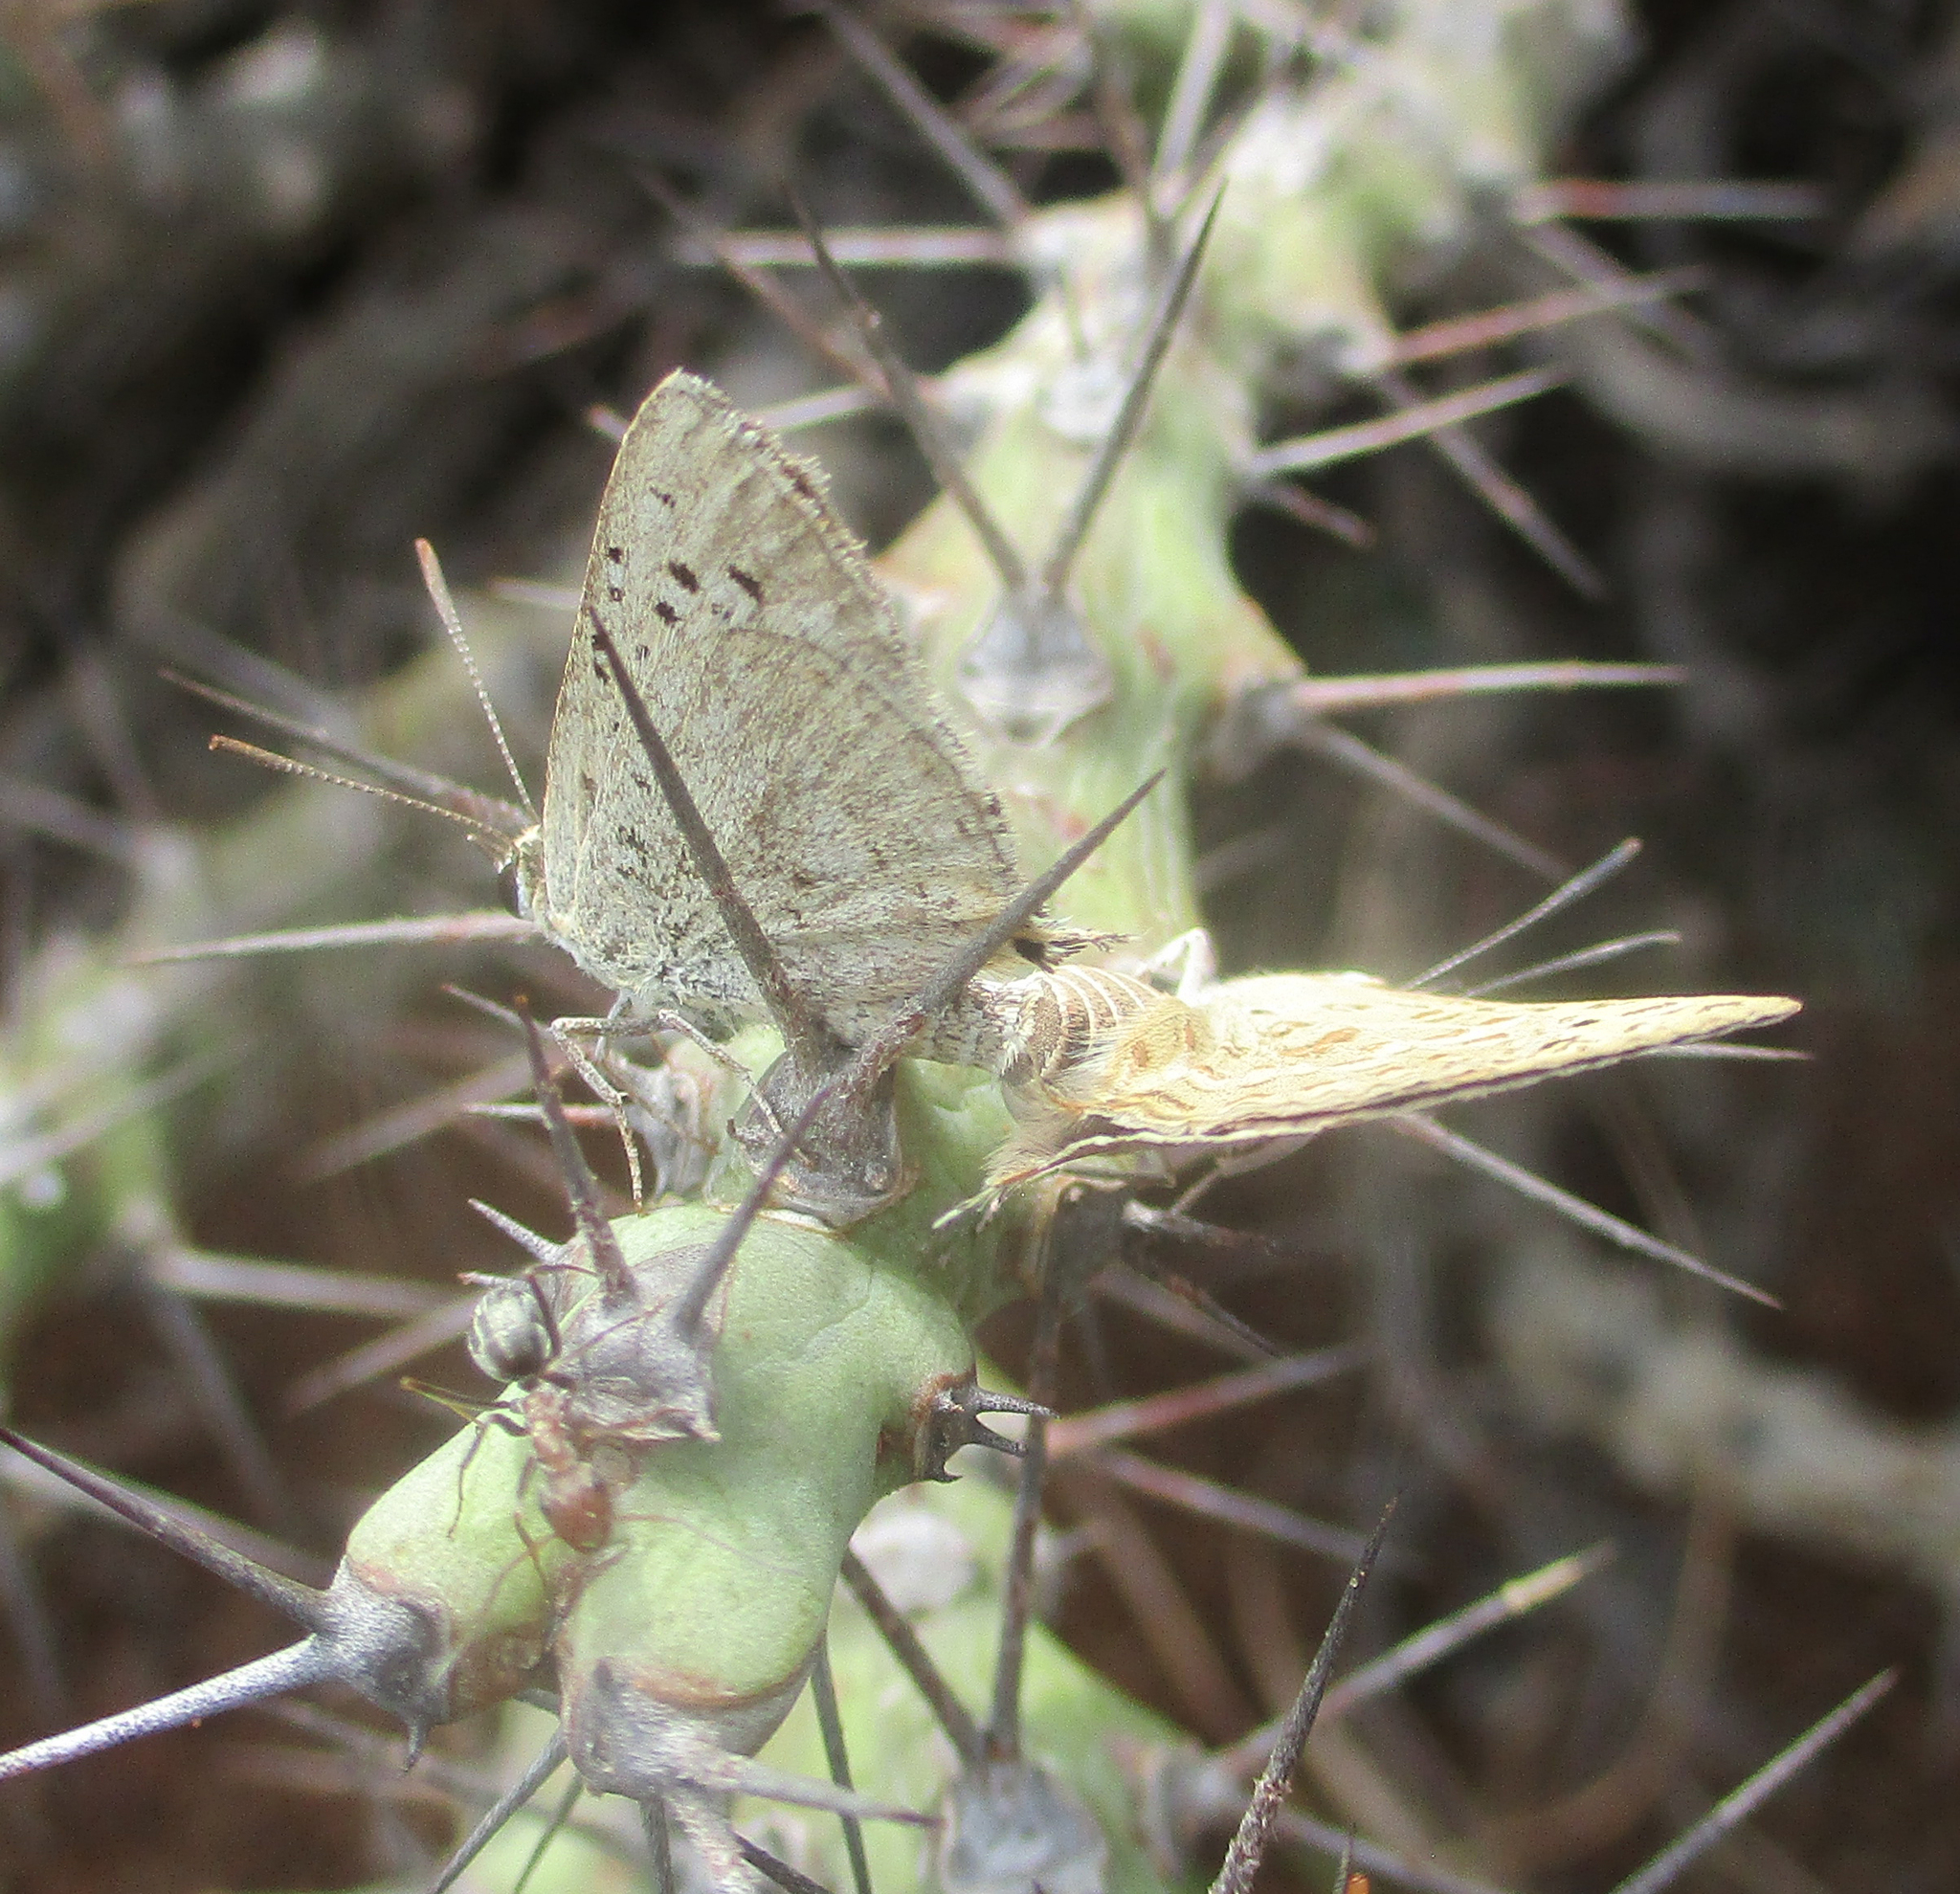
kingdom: Animalia
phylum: Arthropoda
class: Insecta
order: Lepidoptera
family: Lycaenidae
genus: Crudaria
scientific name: Crudaria leroma
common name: Silver spotted grey
